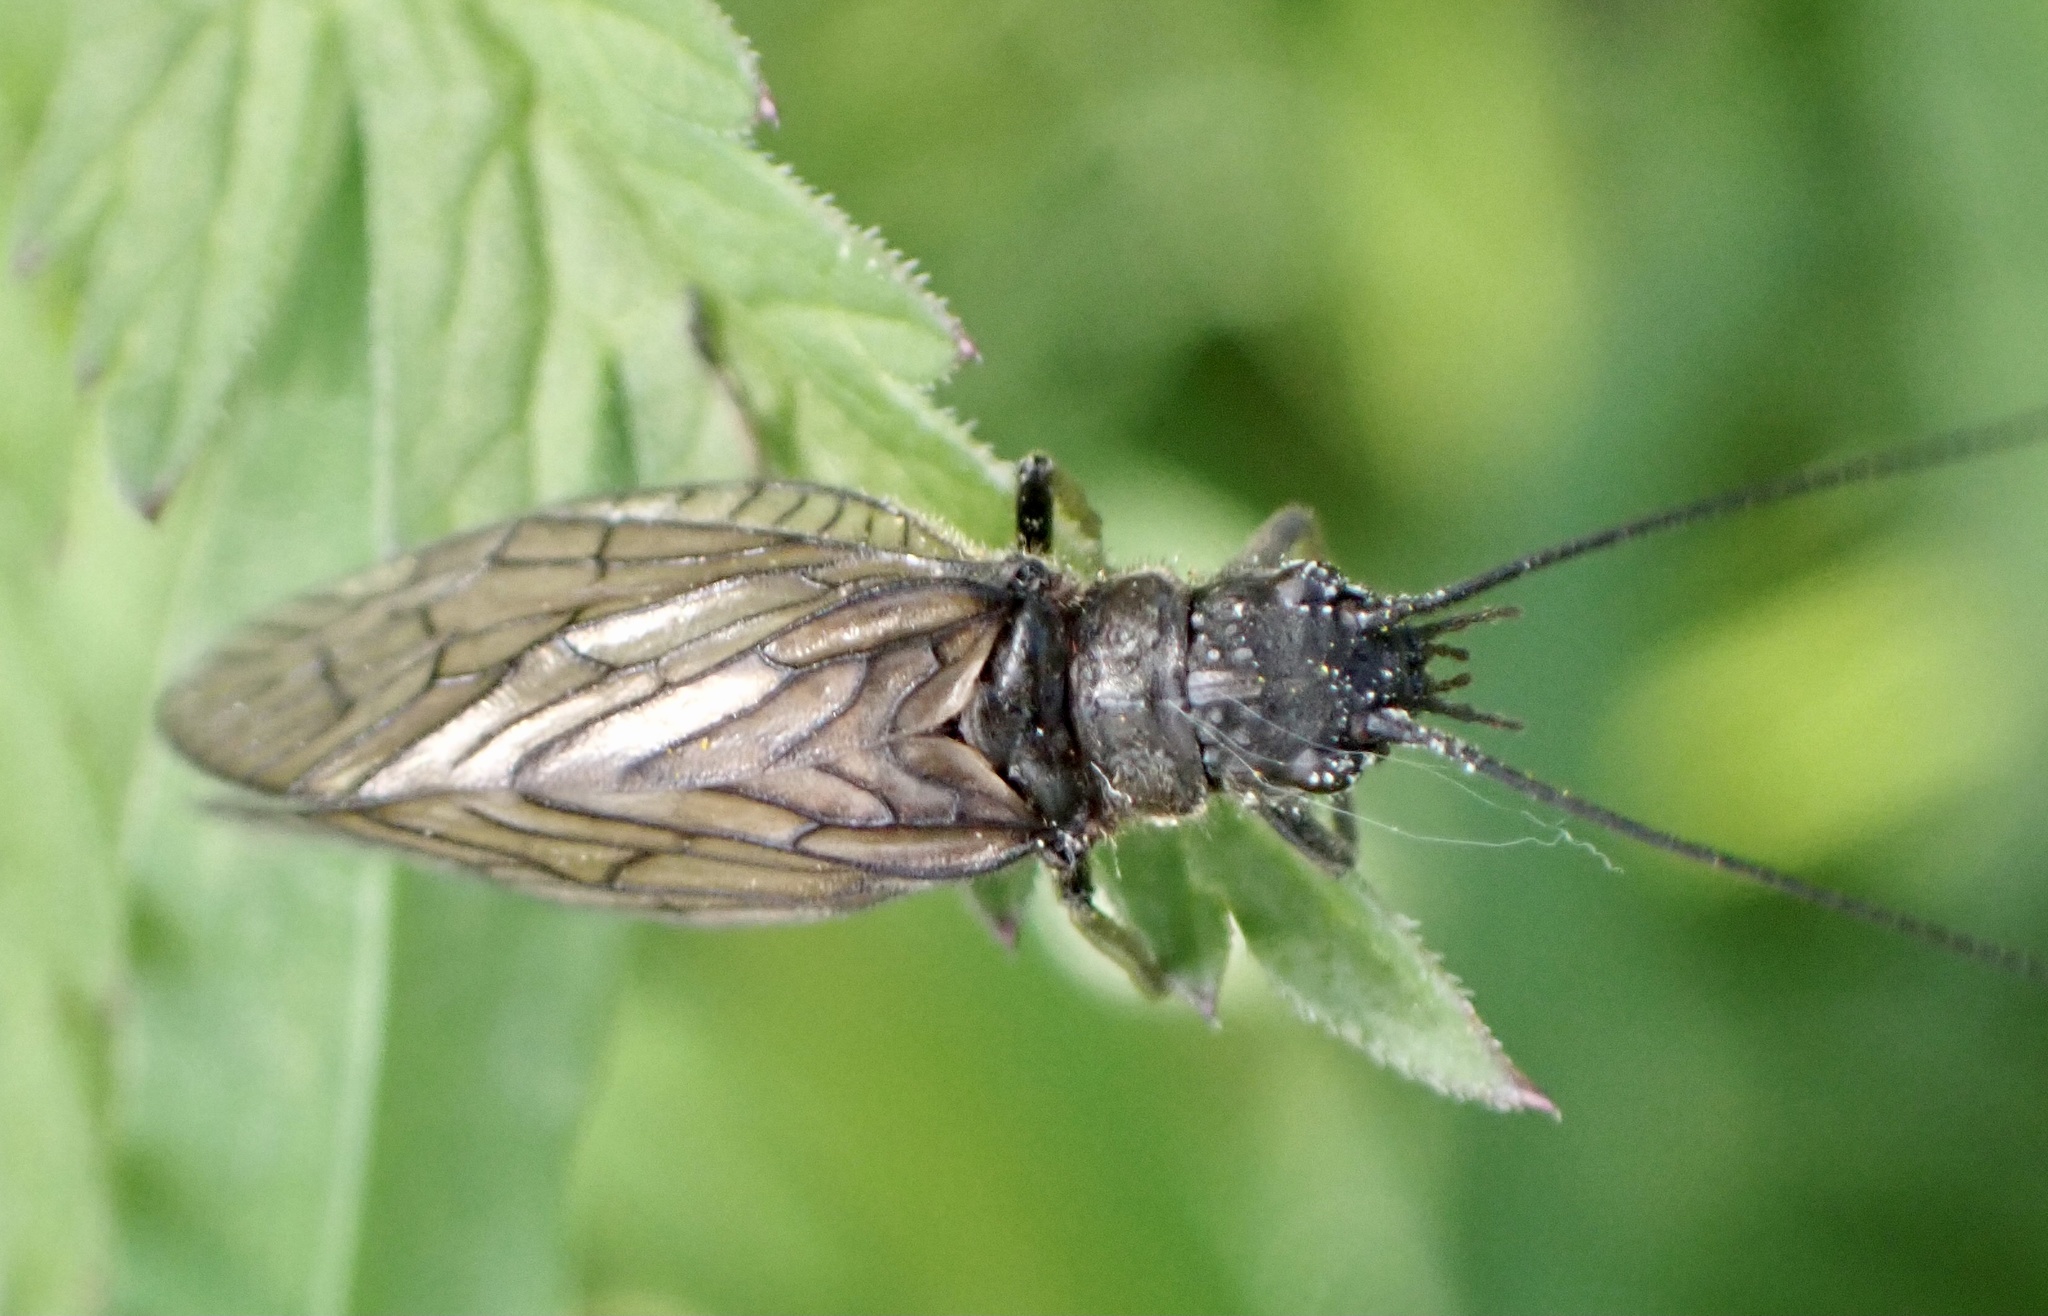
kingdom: Animalia
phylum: Arthropoda
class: Insecta
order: Megaloptera
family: Sialidae
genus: Sialis
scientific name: Sialis
